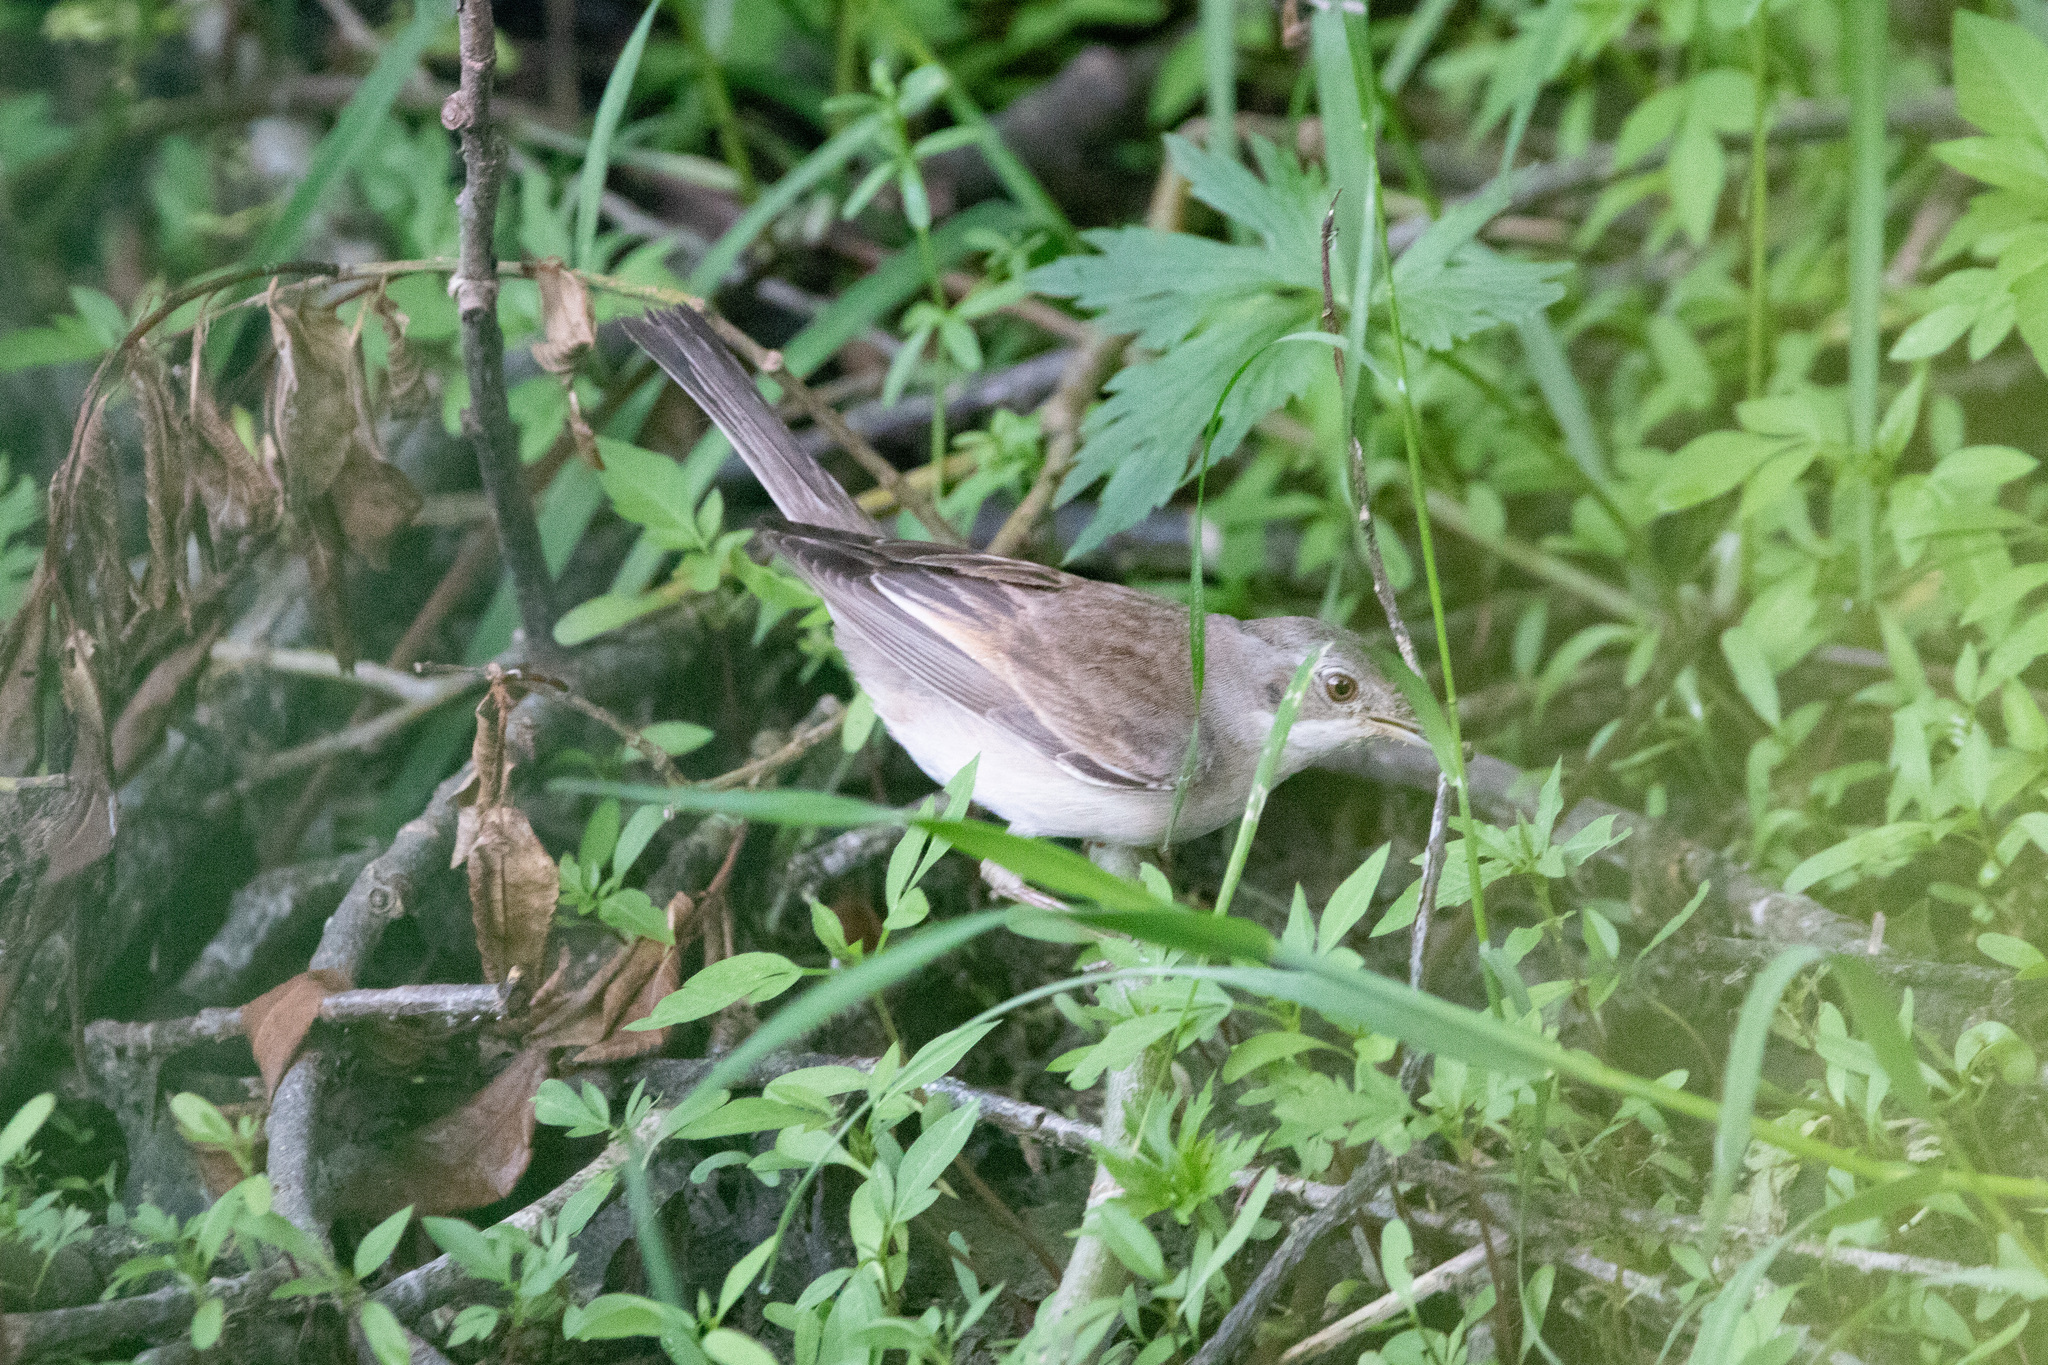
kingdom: Animalia
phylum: Chordata
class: Aves
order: Passeriformes
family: Sylviidae
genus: Sylvia
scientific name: Sylvia communis
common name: Common whitethroat
